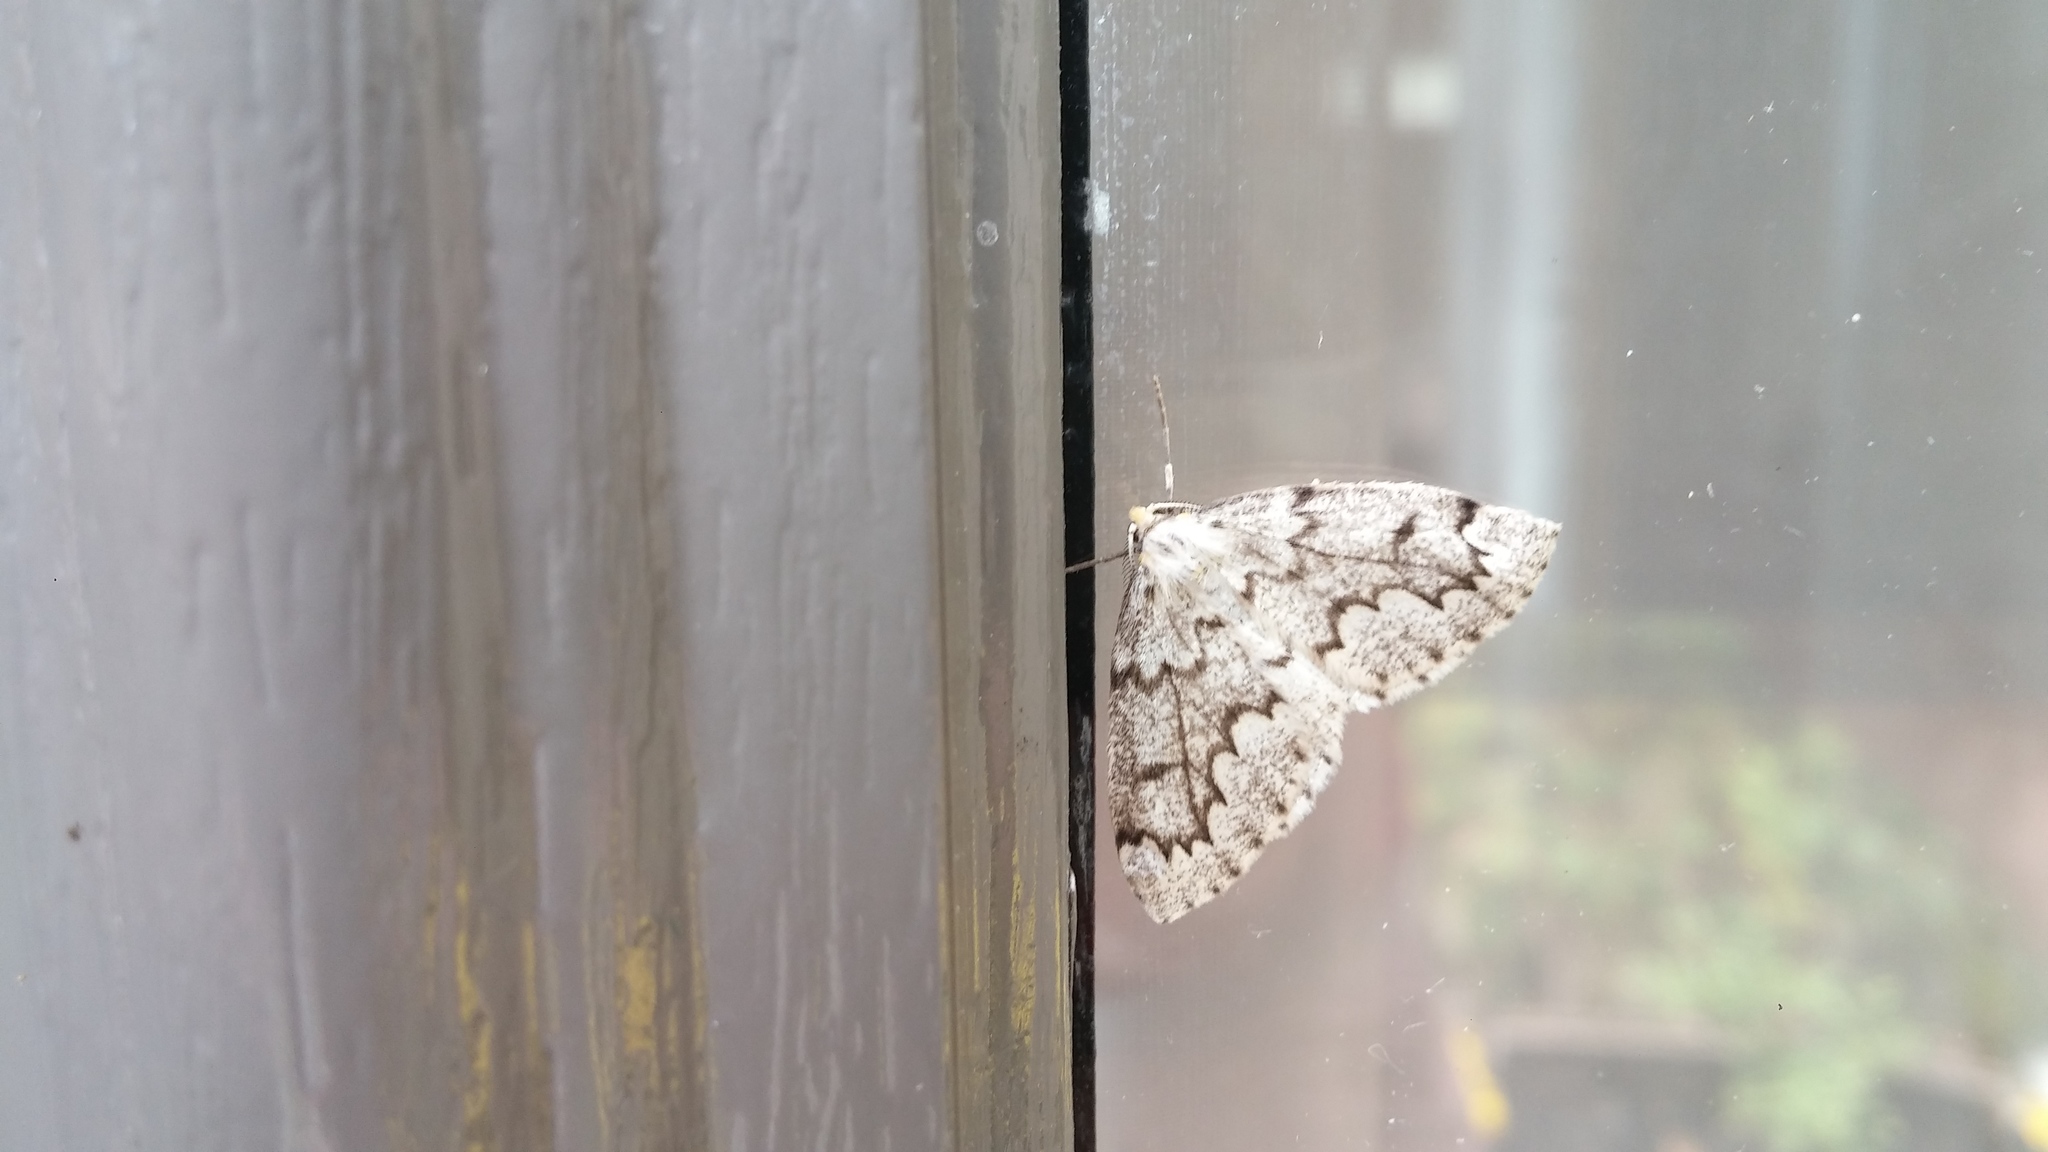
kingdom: Animalia
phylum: Arthropoda
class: Insecta
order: Lepidoptera
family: Geometridae
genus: Nepytia
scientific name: Nepytia canosaria
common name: False hemlock looper
